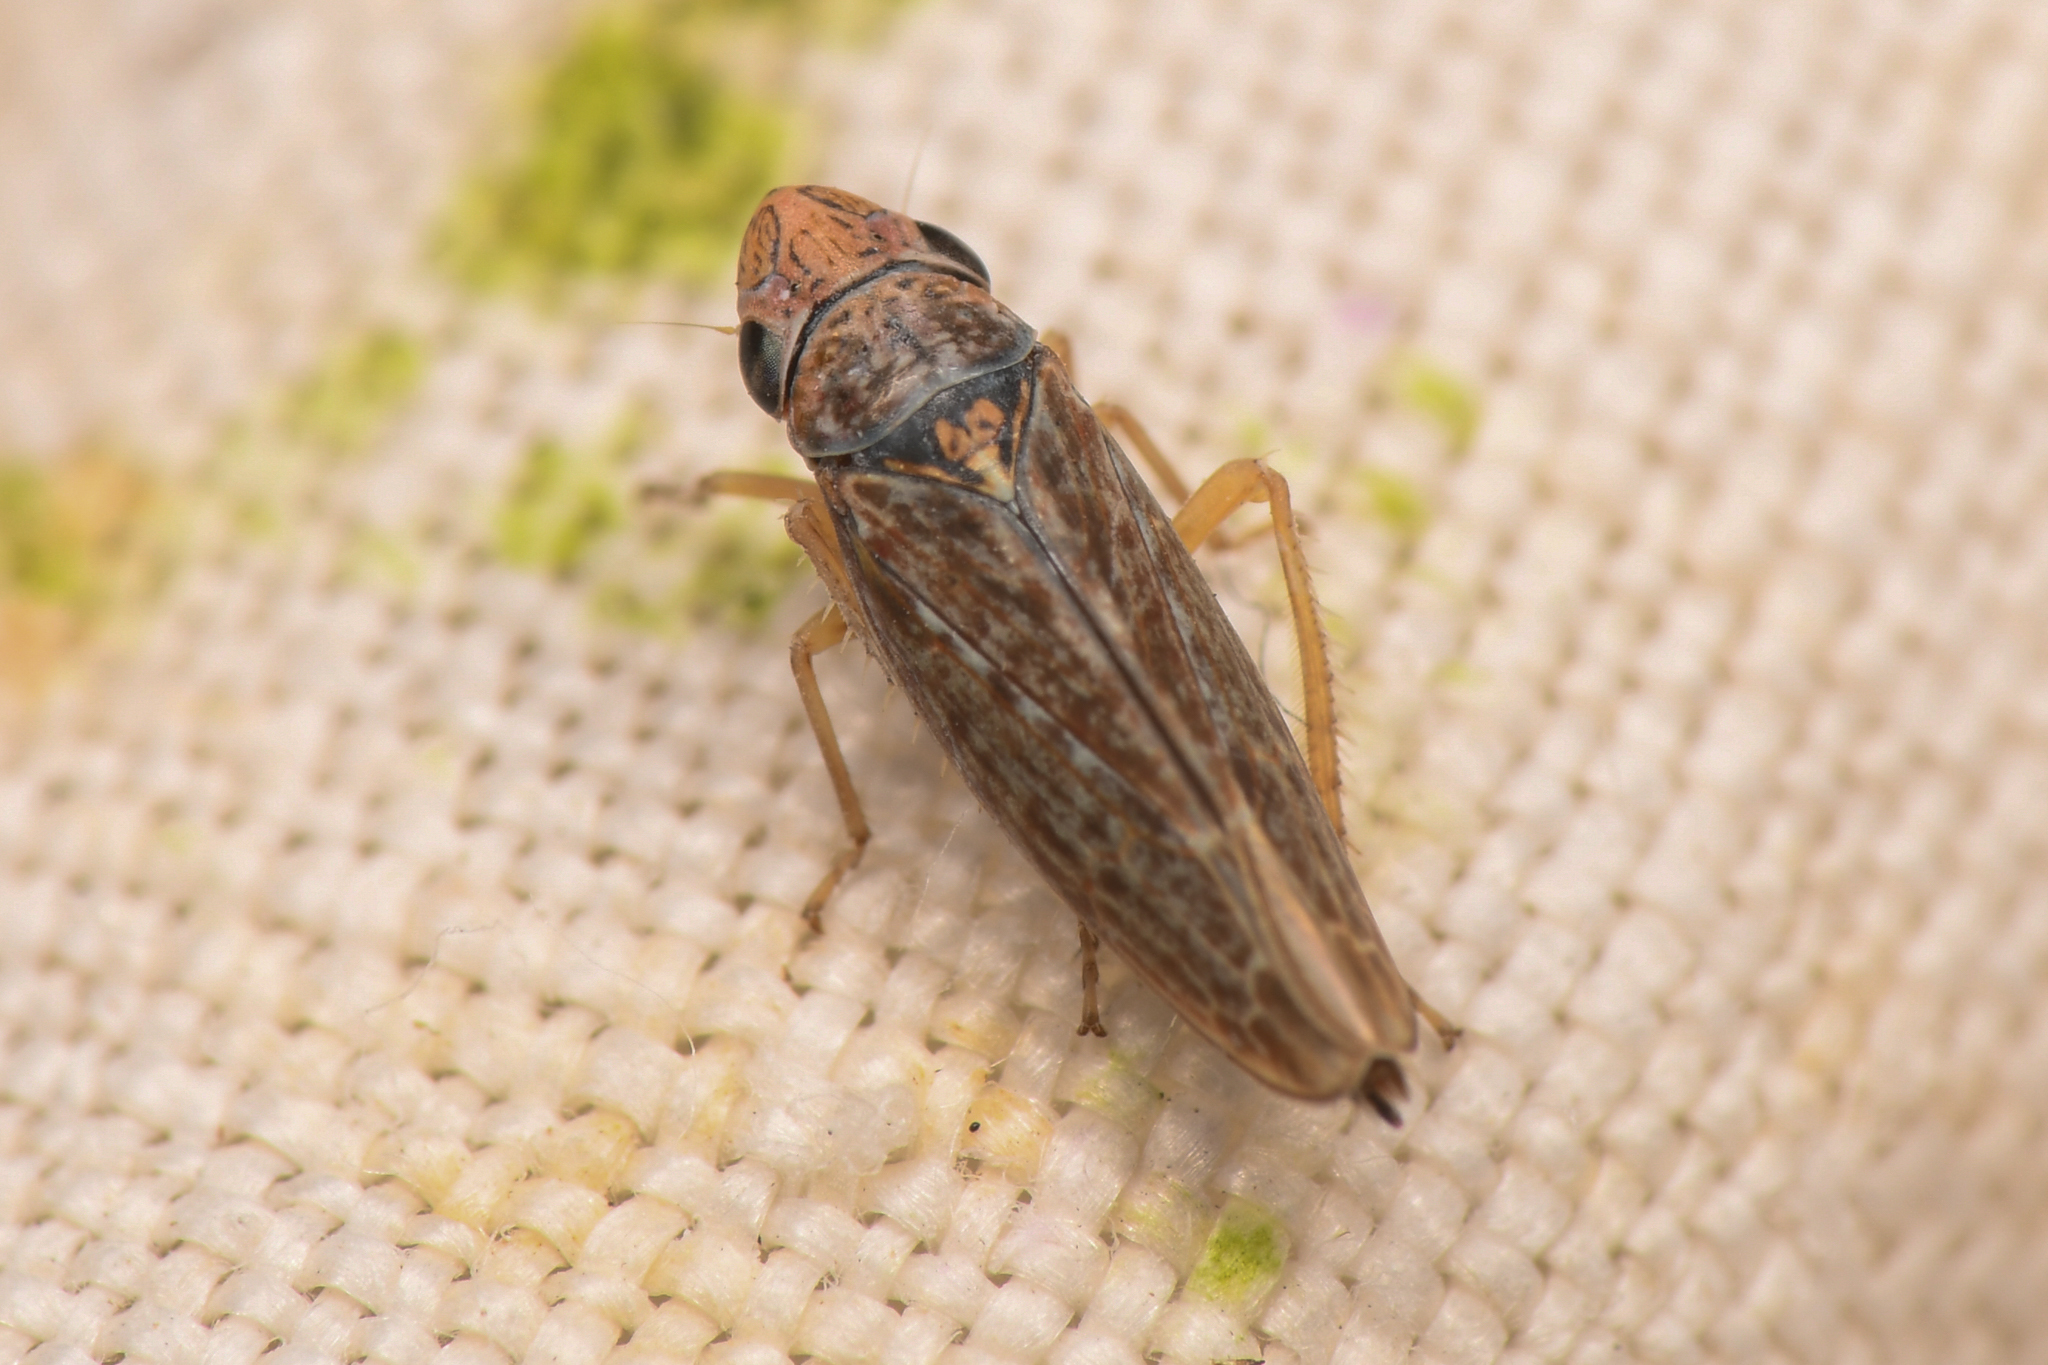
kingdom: Animalia
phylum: Arthropoda
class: Insecta
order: Hemiptera
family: Cicadellidae
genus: Neokolla
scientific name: Neokolla bispinosa
